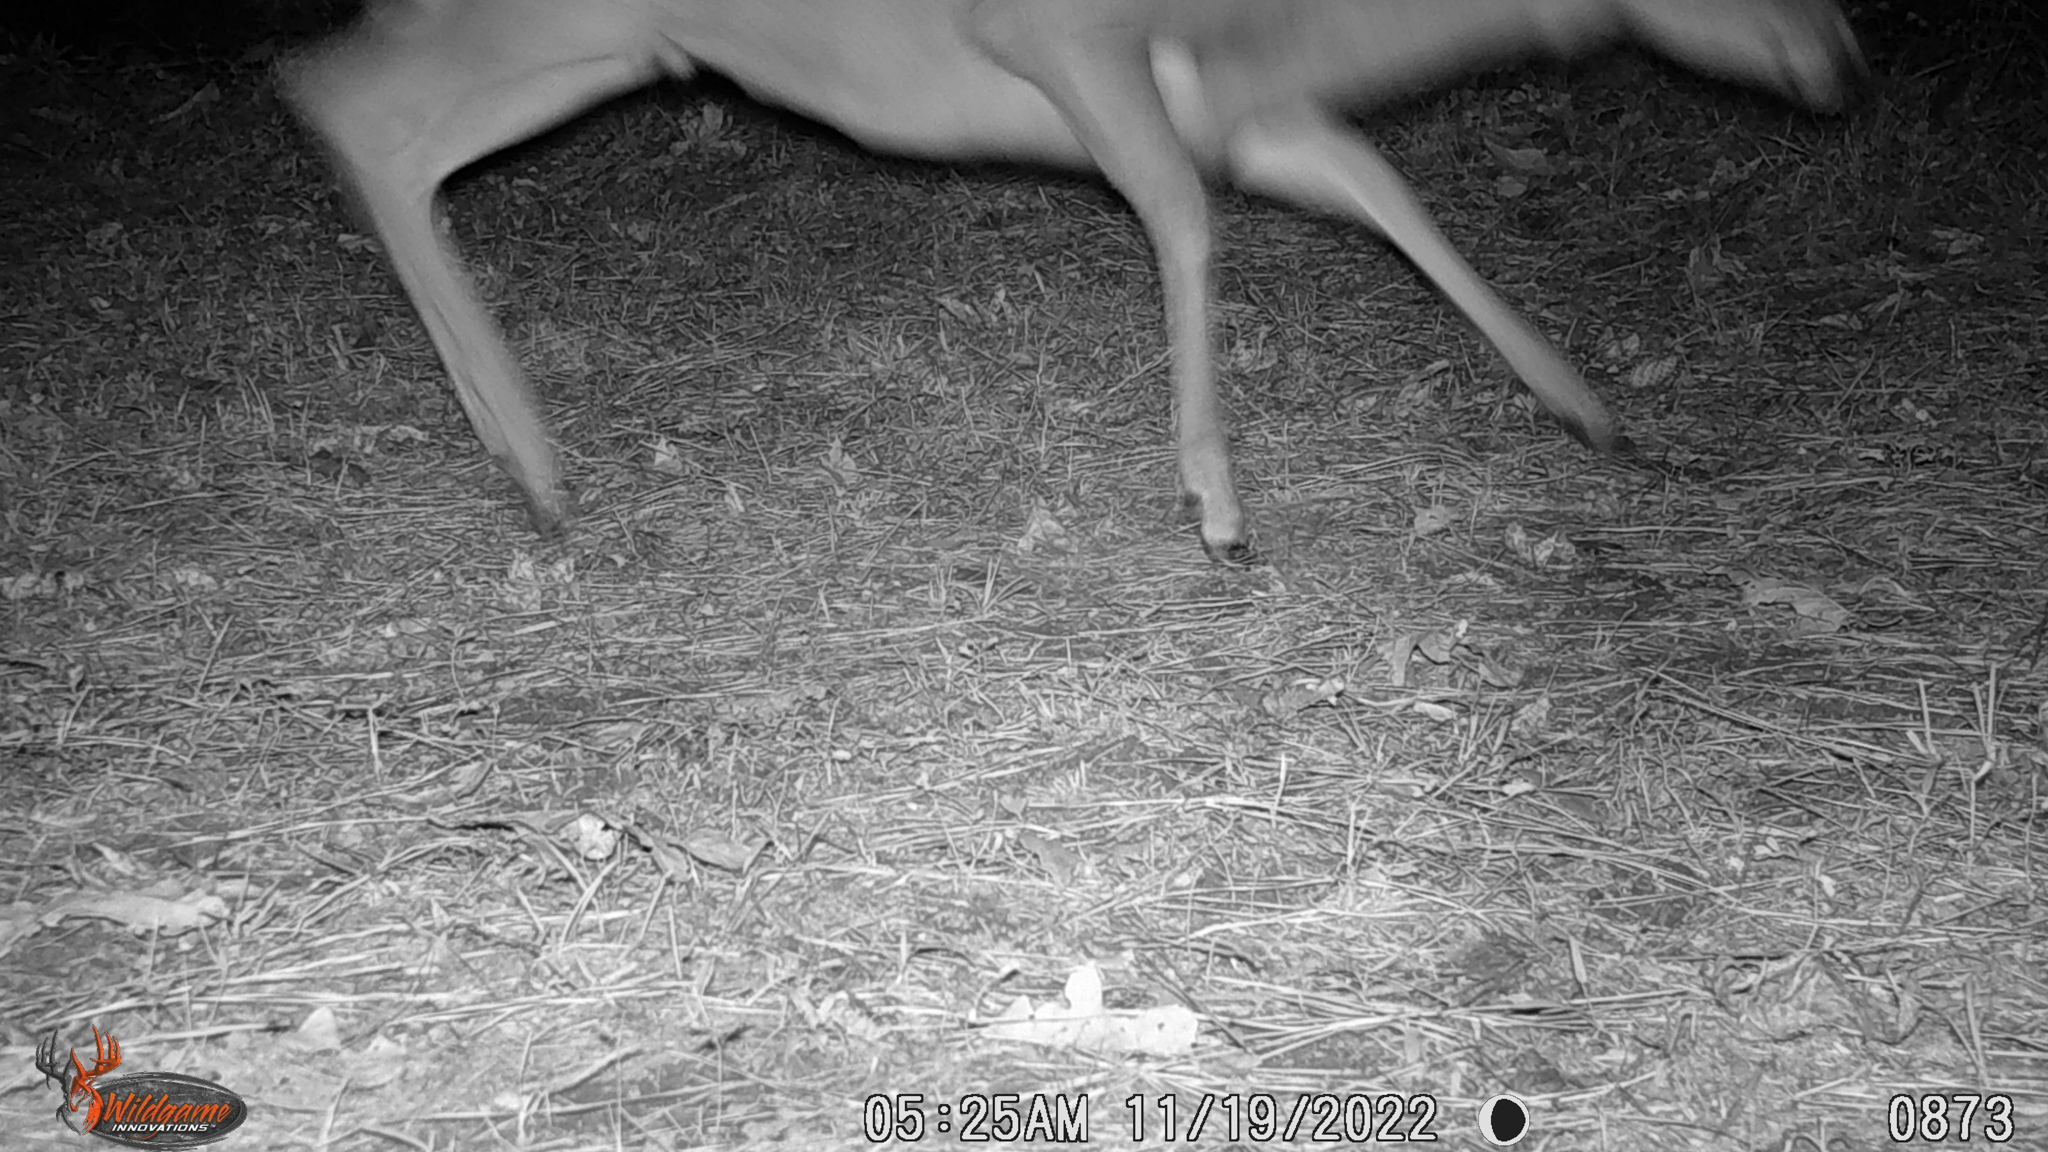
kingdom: Animalia
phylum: Chordata
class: Mammalia
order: Artiodactyla
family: Cervidae
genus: Odocoileus
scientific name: Odocoileus virginianus
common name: White-tailed deer
